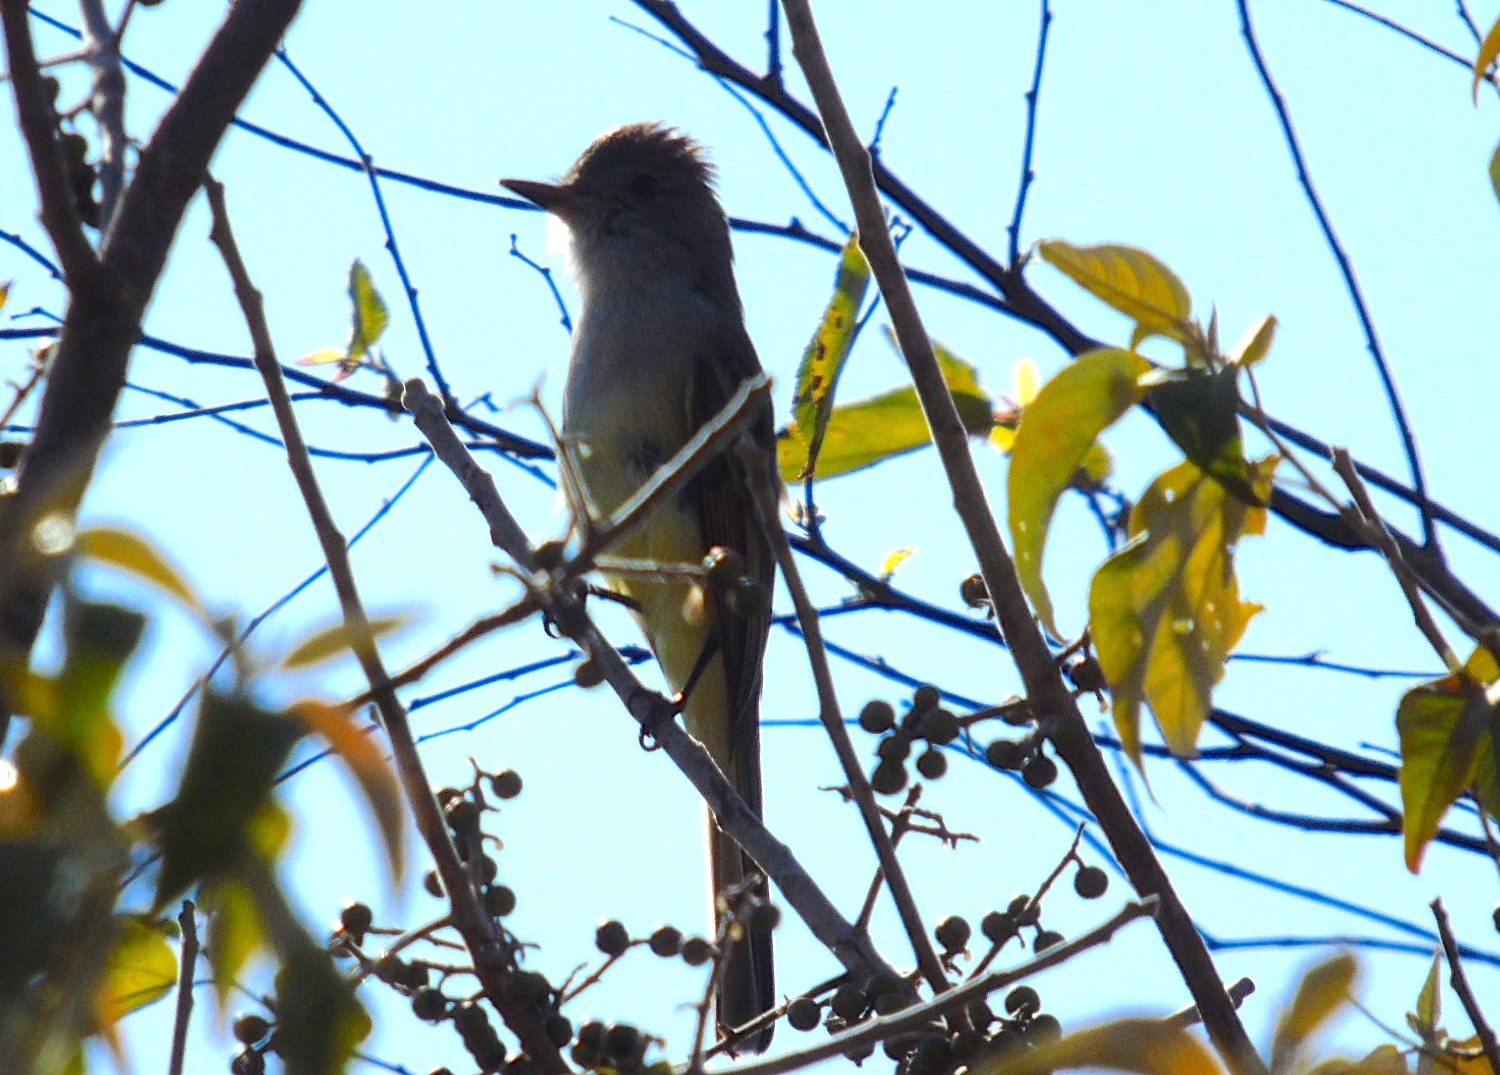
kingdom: Animalia
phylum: Chordata
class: Aves
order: Passeriformes
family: Tyrannidae
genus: Myiarchus
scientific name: Myiarchus cinerascens
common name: Ash-throated flycatcher
